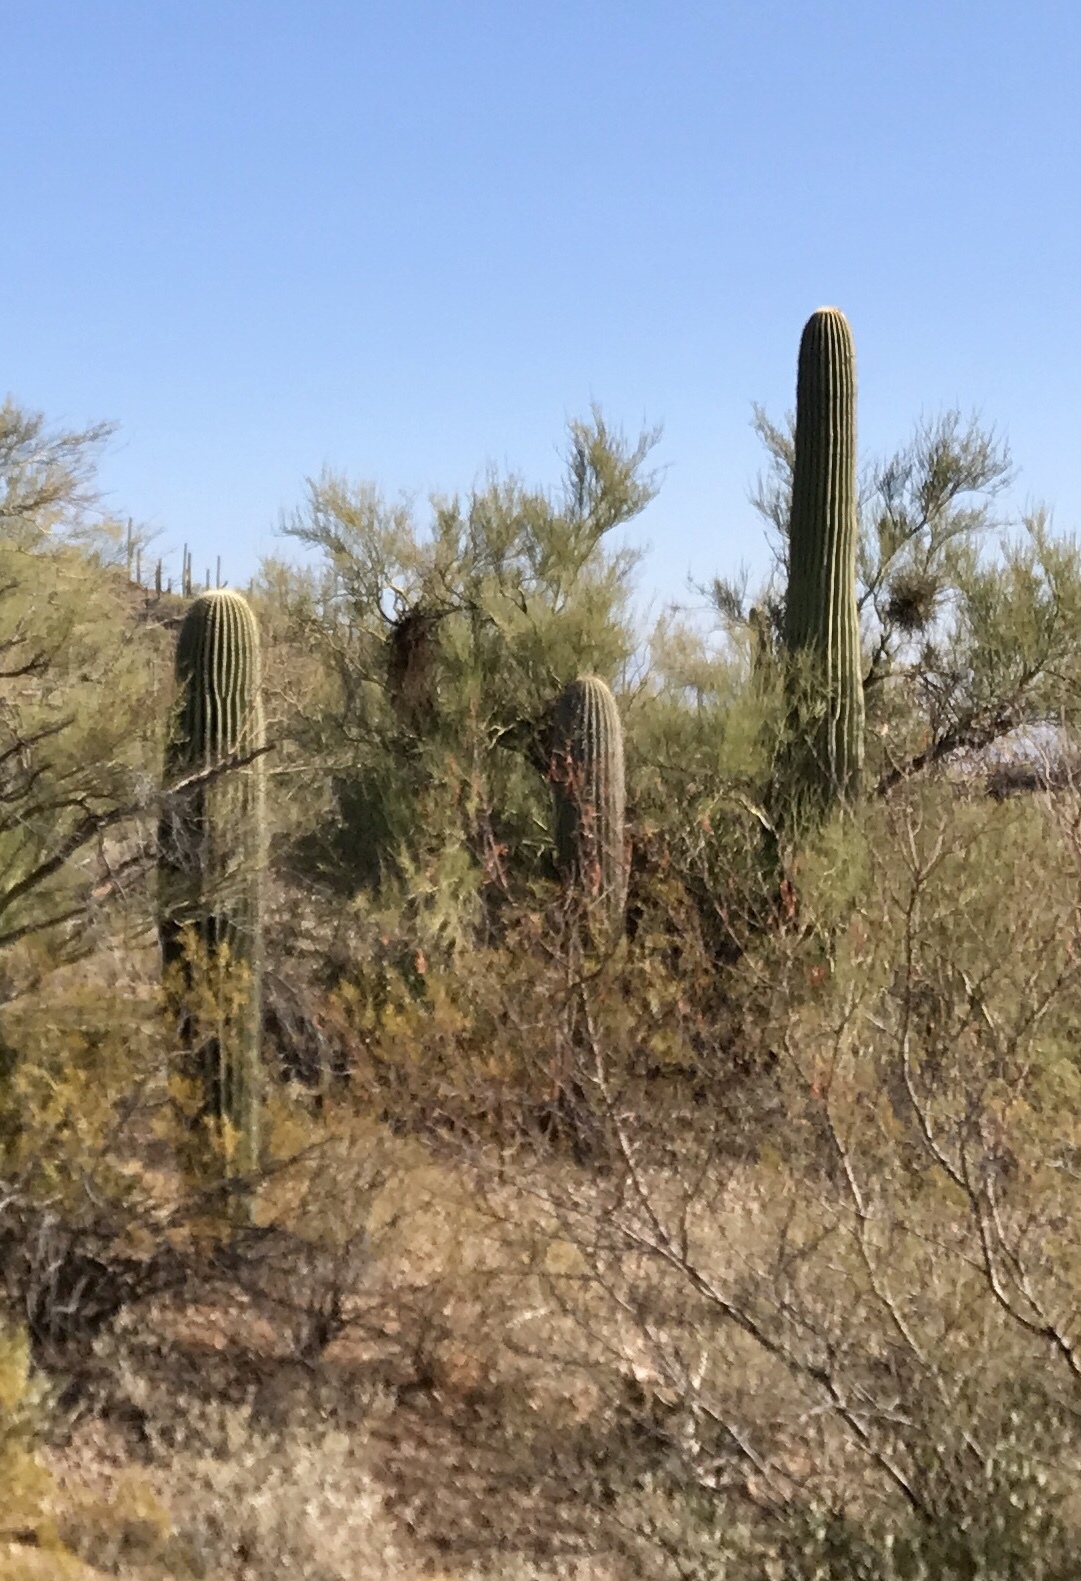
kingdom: Plantae
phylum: Tracheophyta
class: Magnoliopsida
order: Caryophyllales
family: Cactaceae
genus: Carnegiea
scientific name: Carnegiea gigantea
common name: Saguaro
